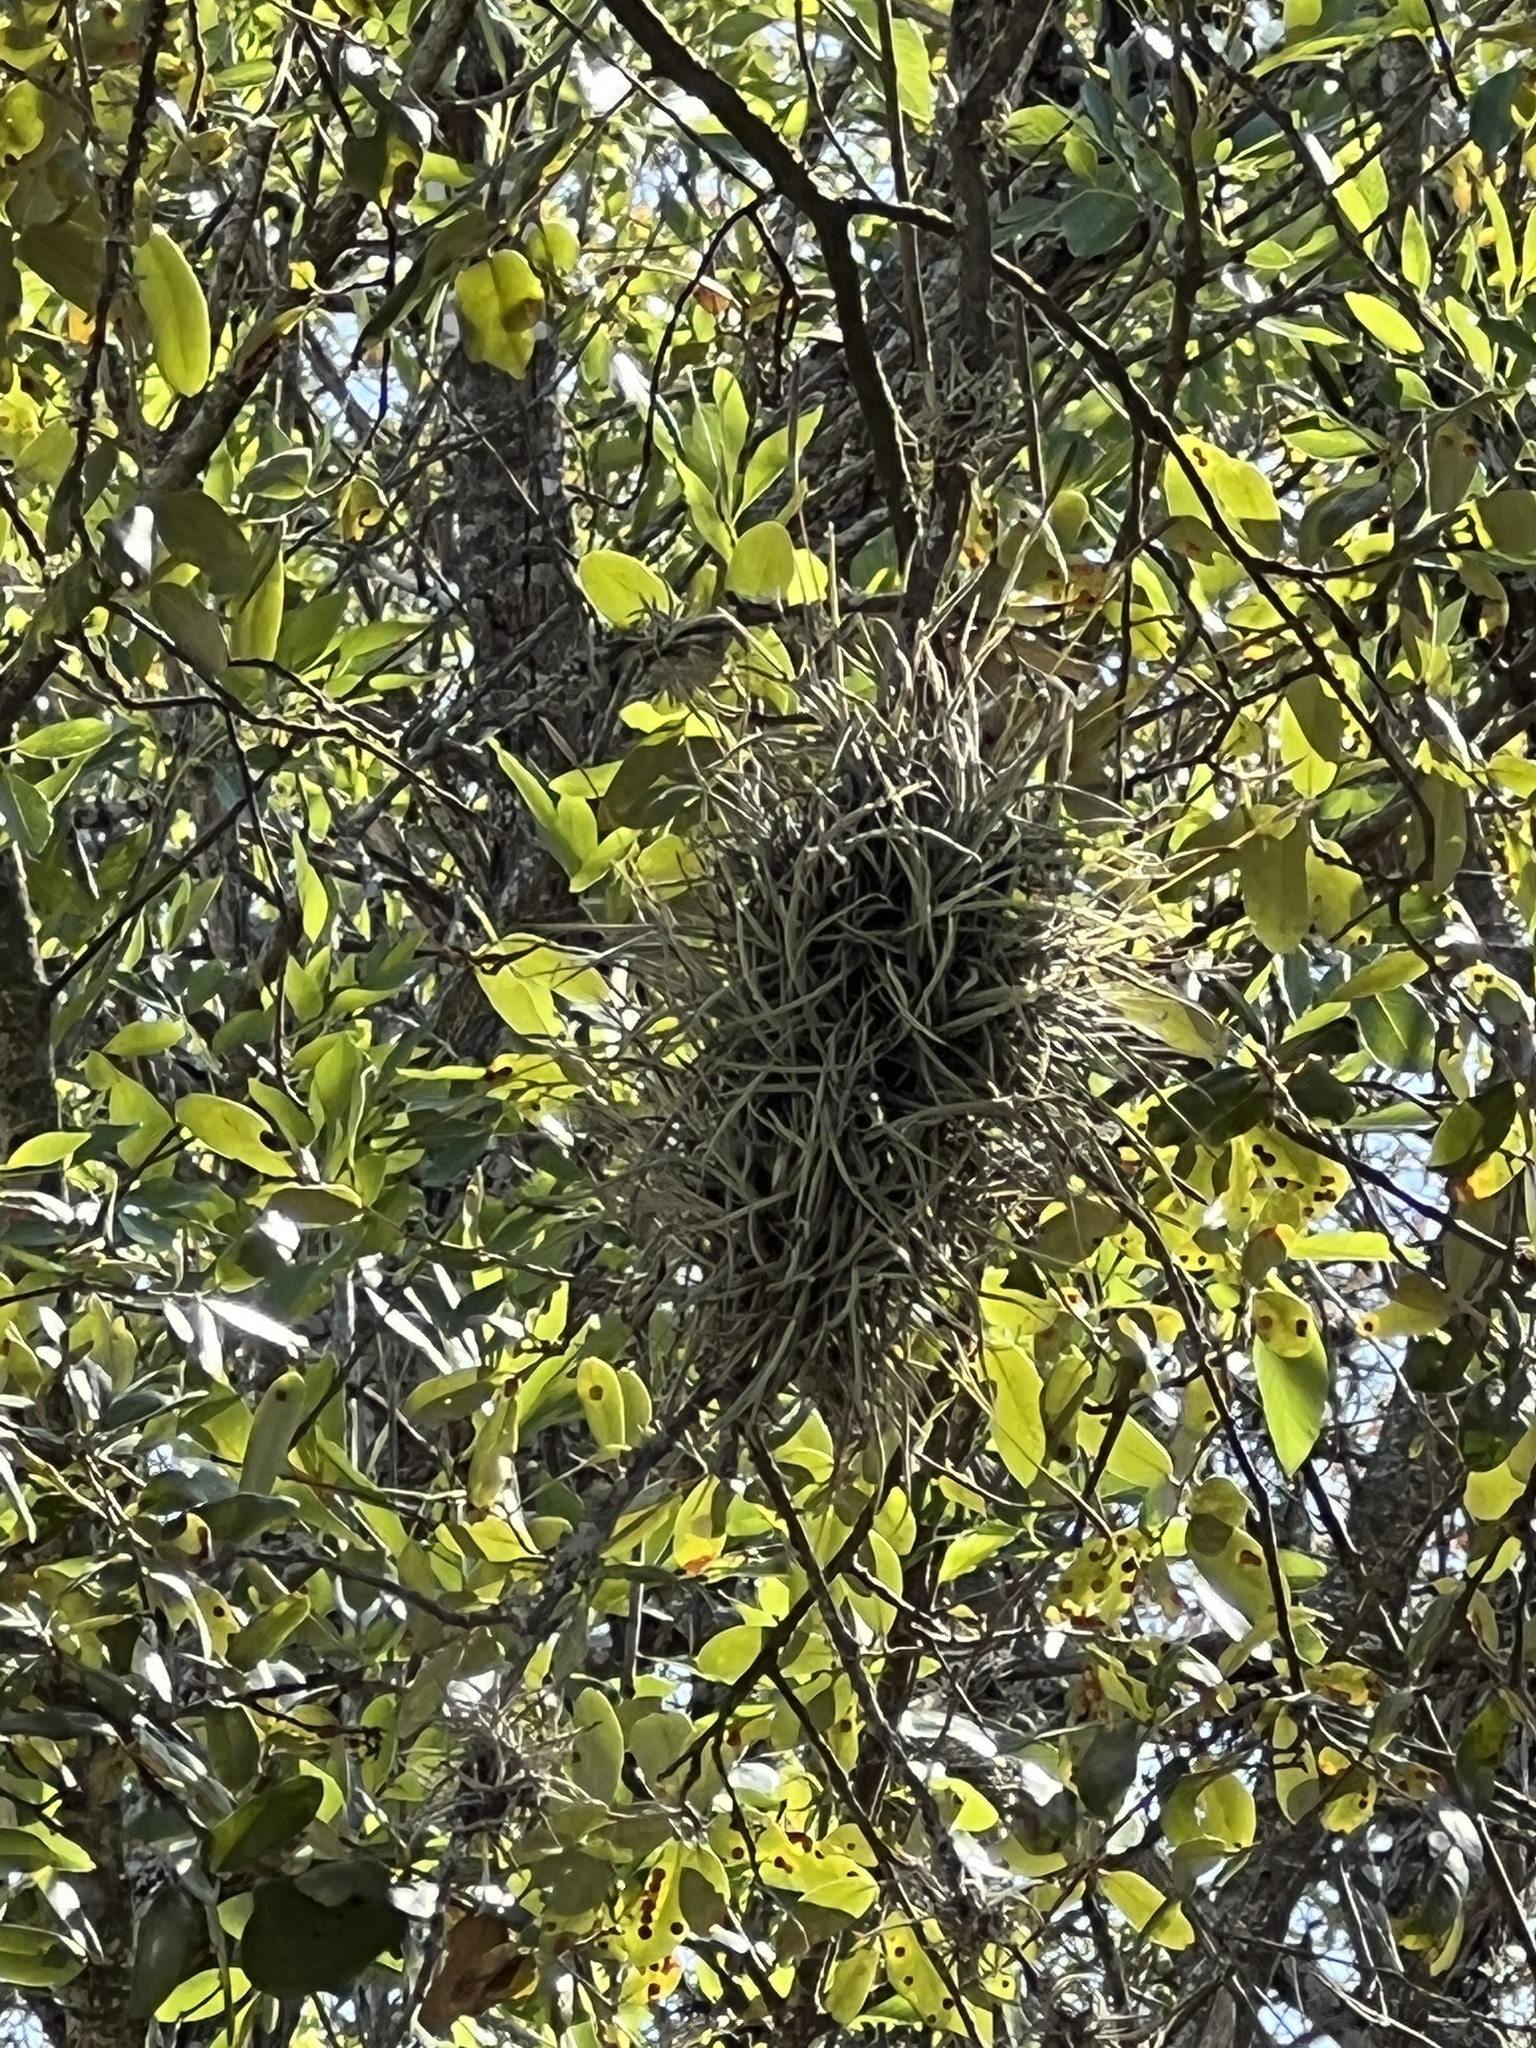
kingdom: Plantae
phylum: Tracheophyta
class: Liliopsida
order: Poales
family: Bromeliaceae
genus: Tillandsia
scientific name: Tillandsia recurvata
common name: Small ballmoss
